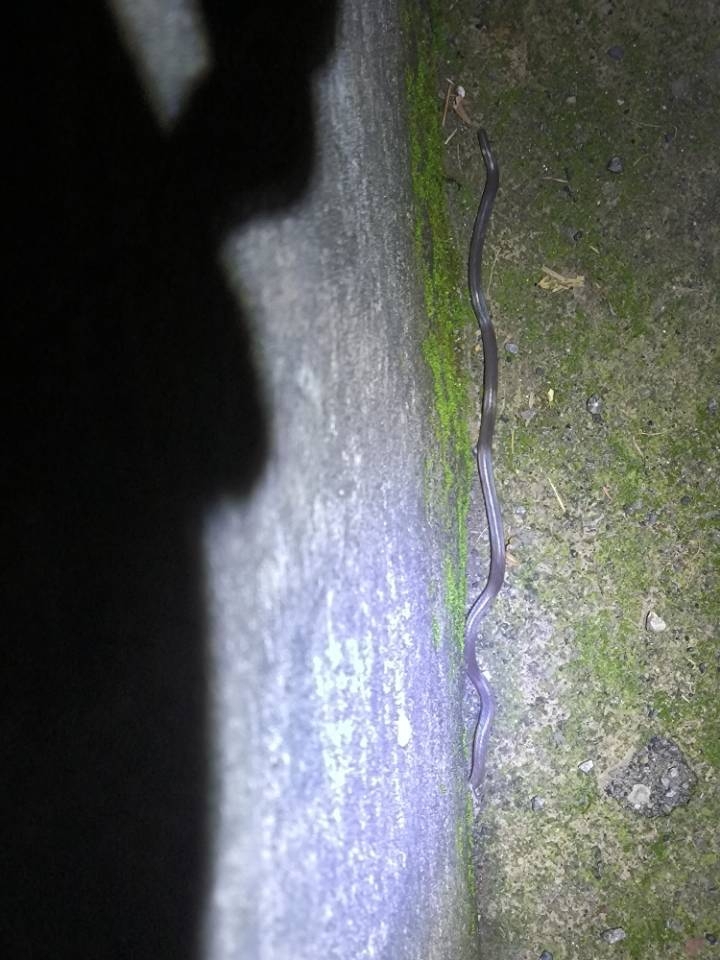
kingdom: Animalia
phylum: Chordata
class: Squamata
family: Colubridae
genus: Calamaria
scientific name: Calamaria septentrionalis
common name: Hong kong dwarf snake
